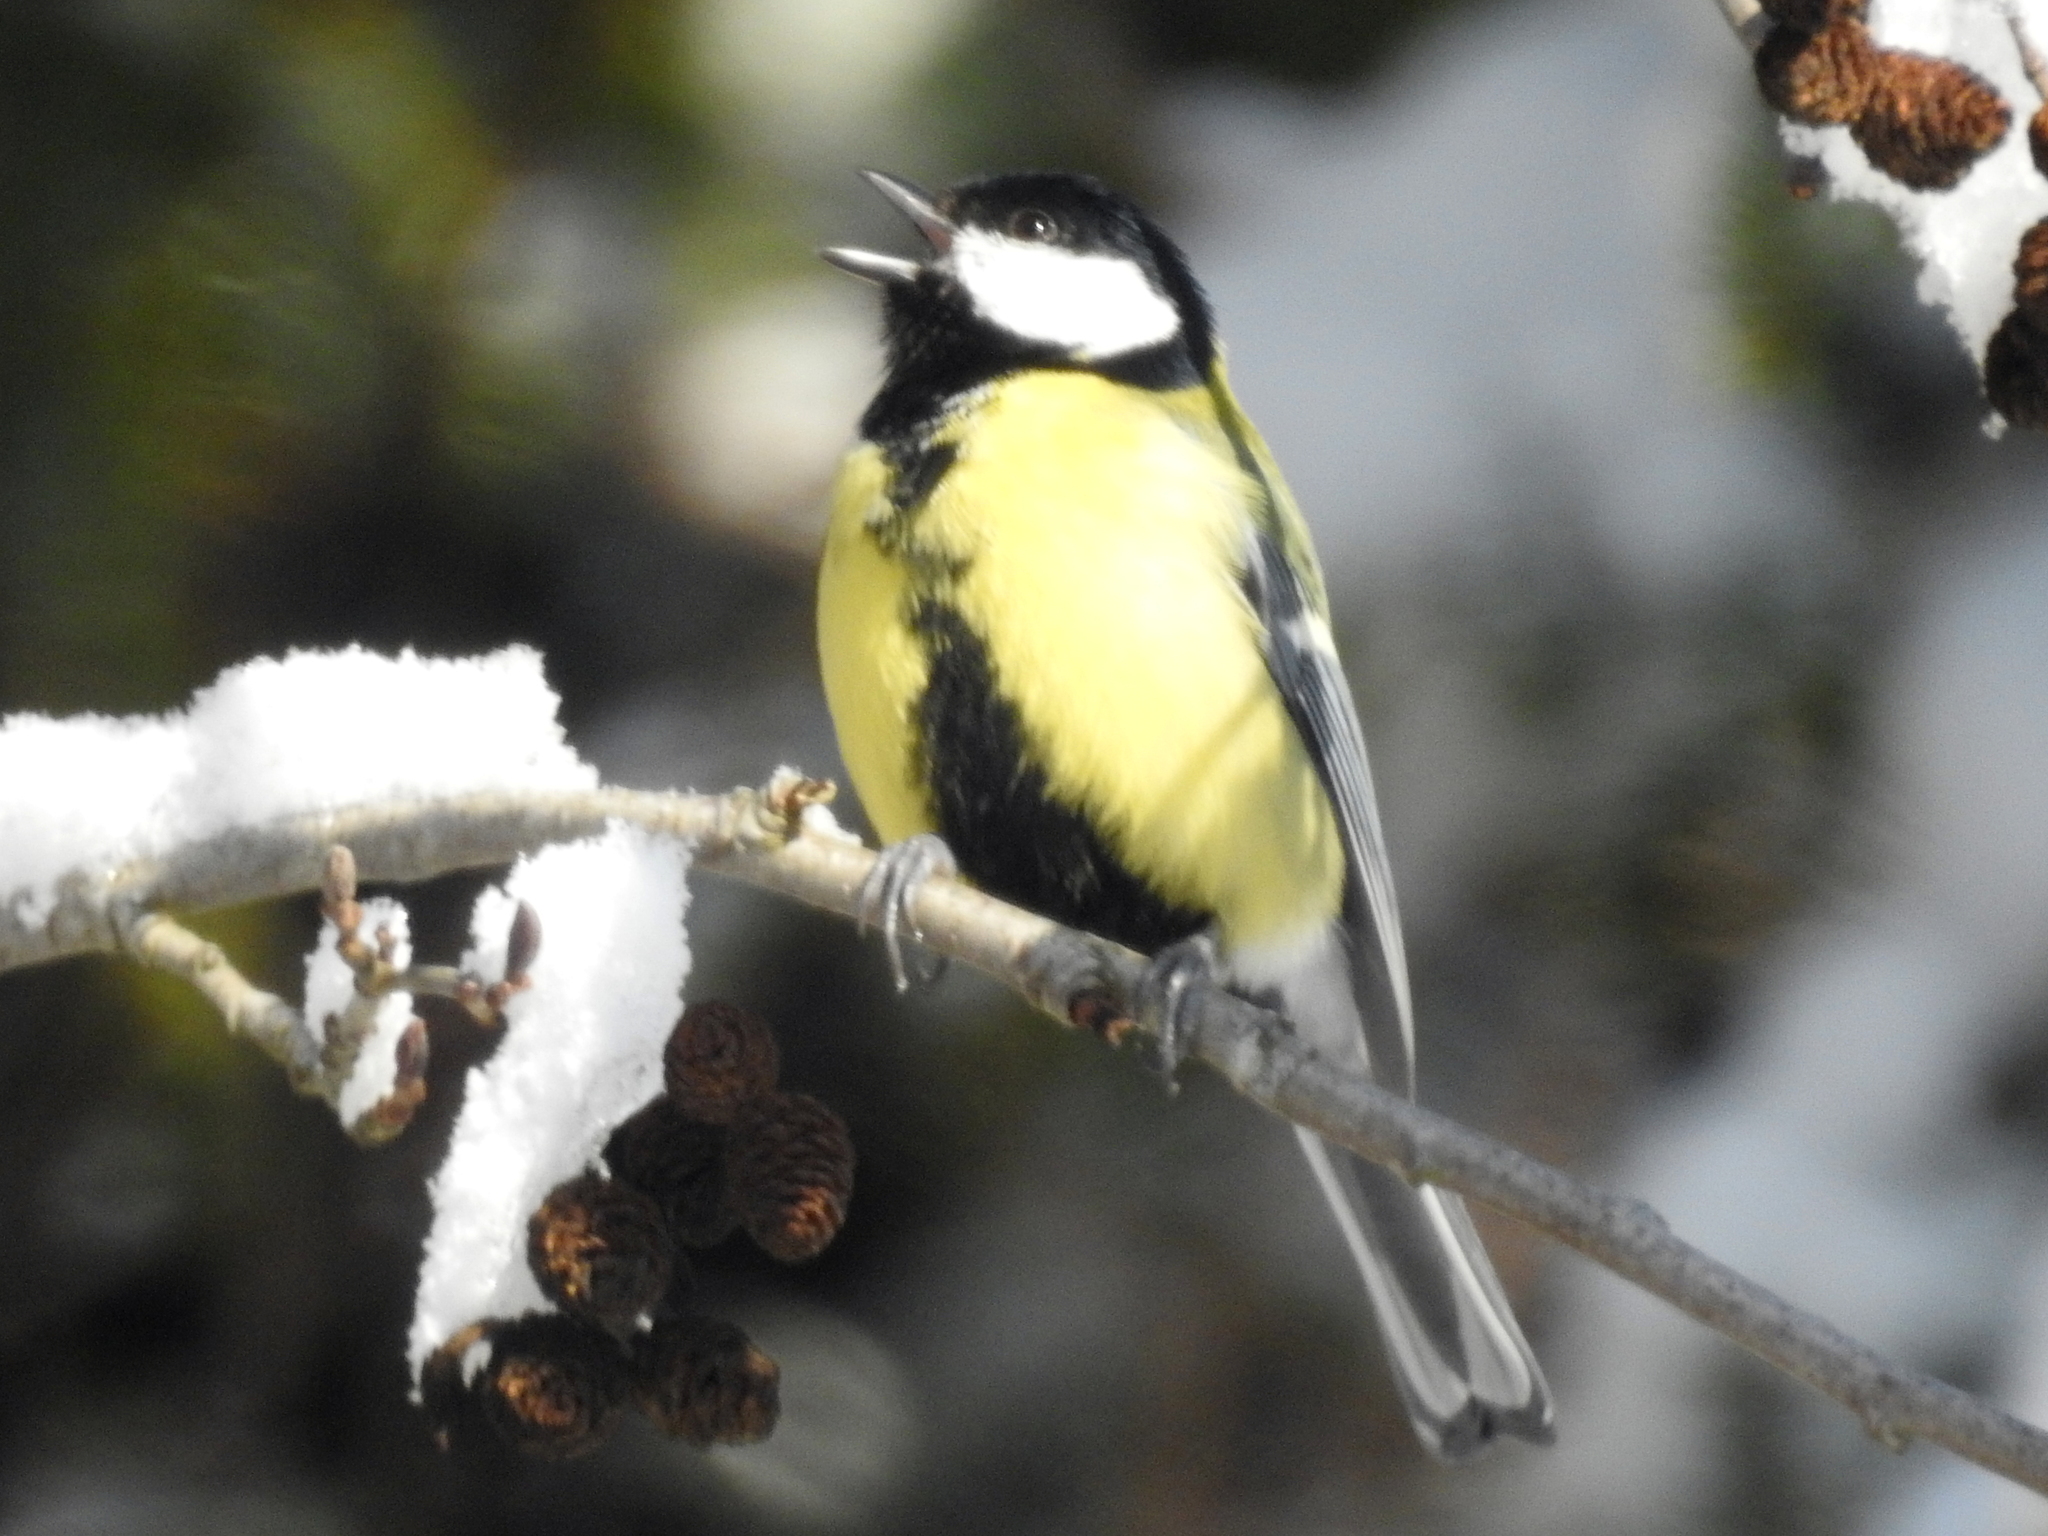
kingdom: Animalia
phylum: Chordata
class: Aves
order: Passeriformes
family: Paridae
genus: Parus
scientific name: Parus major
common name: Great tit
